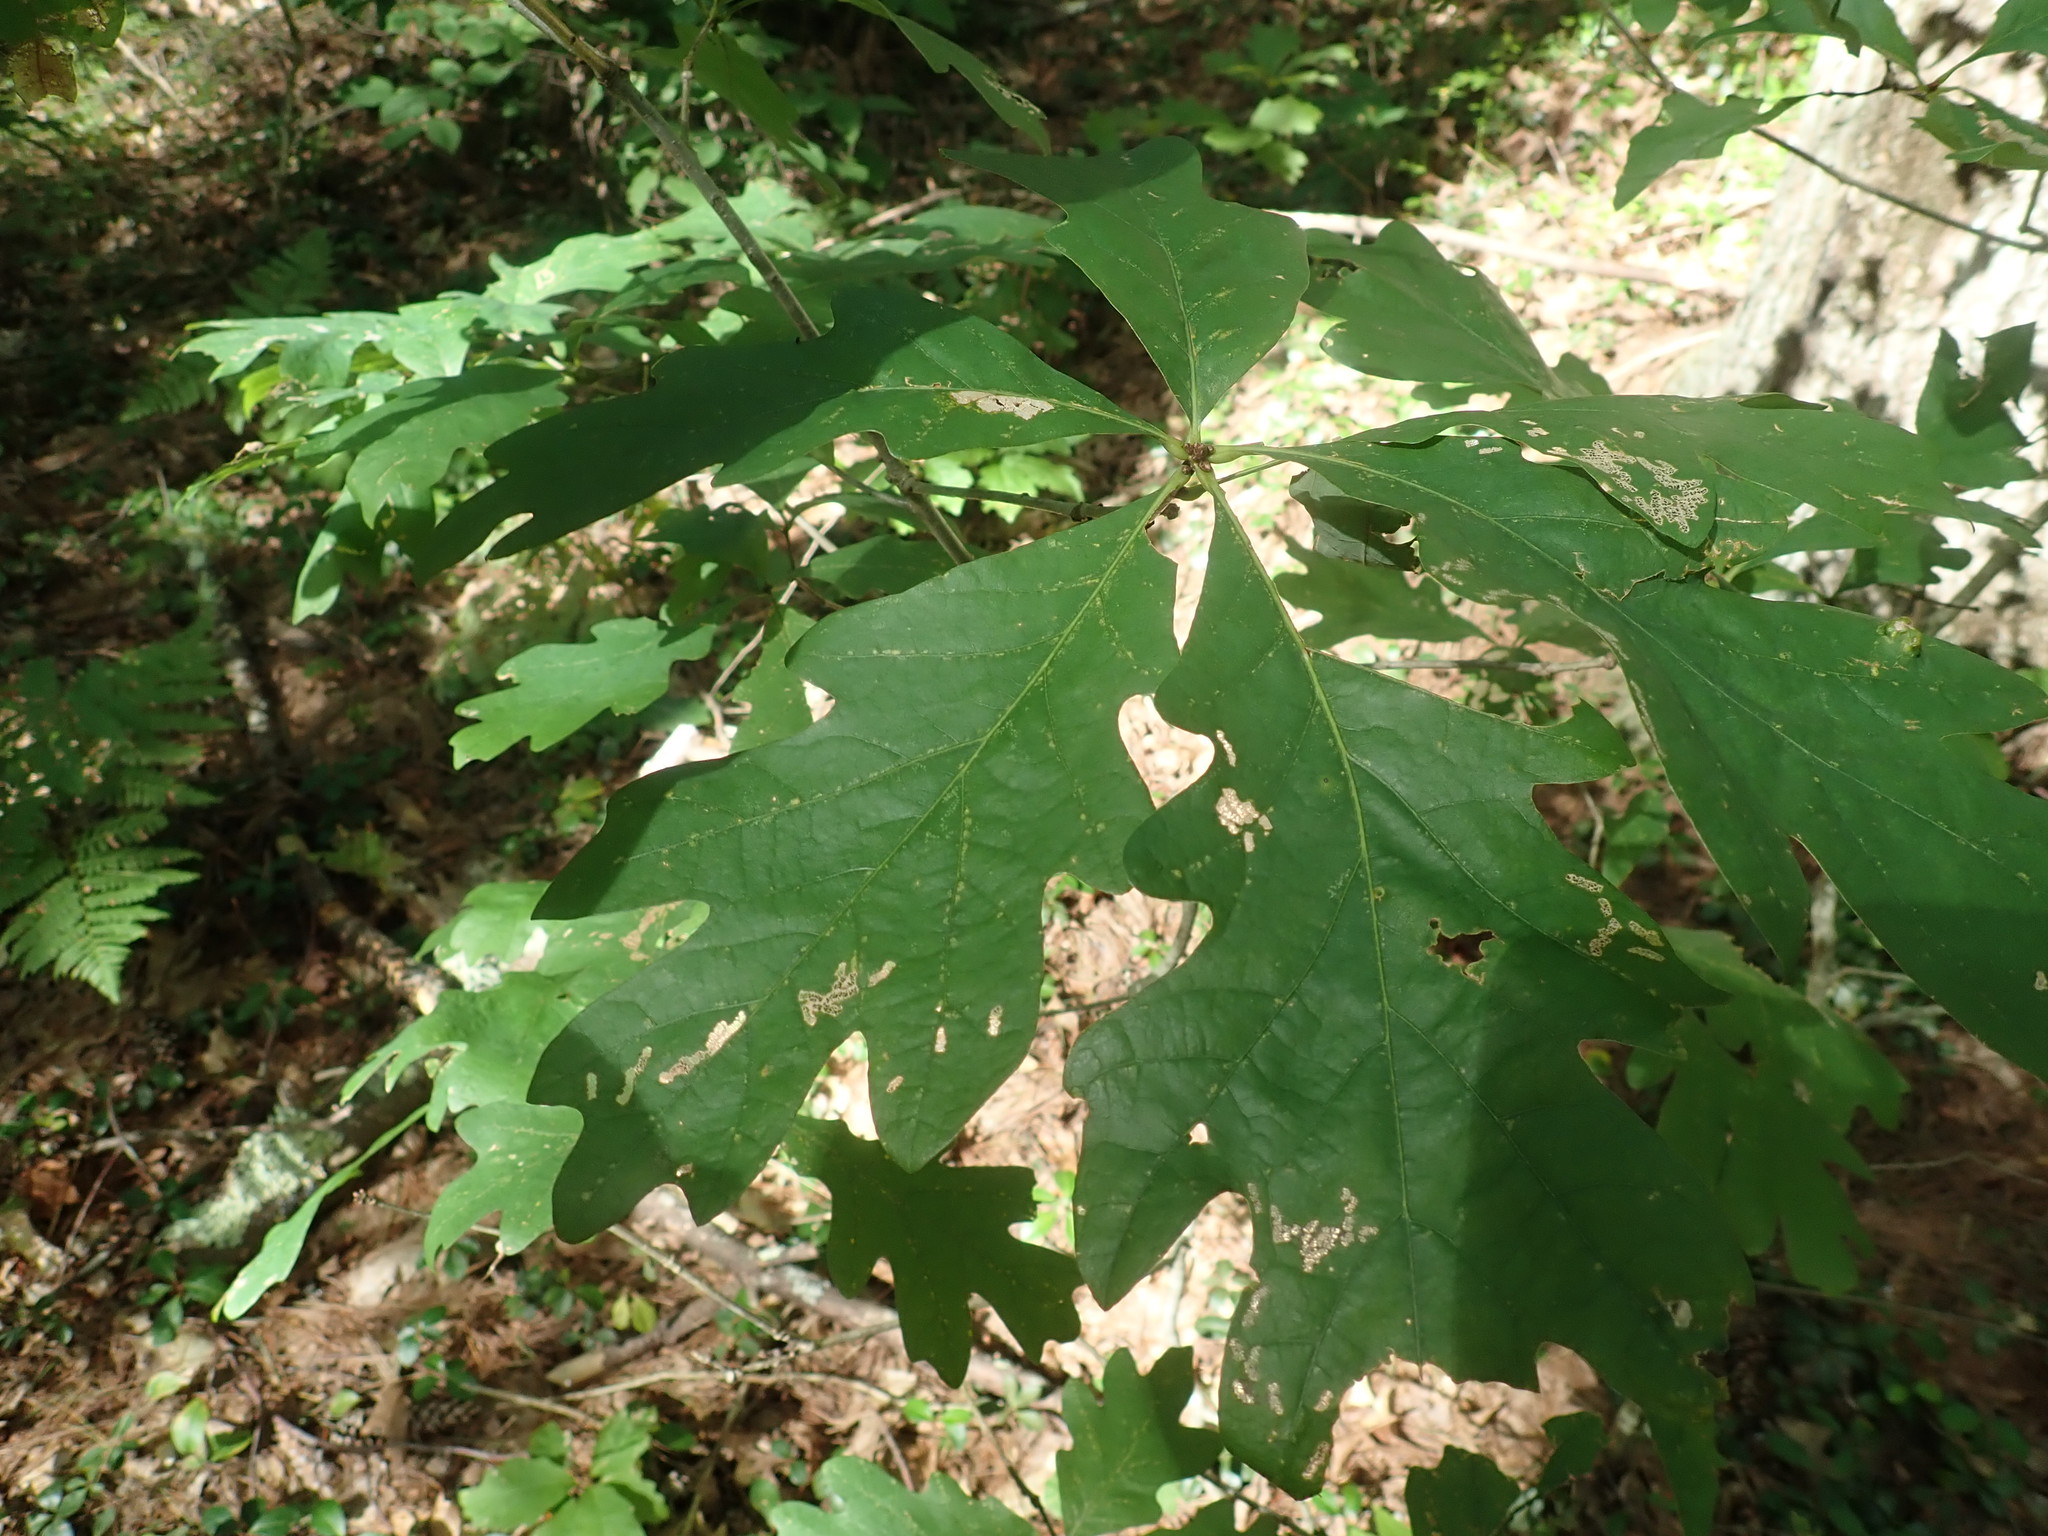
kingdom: Plantae
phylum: Tracheophyta
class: Magnoliopsida
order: Fagales
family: Fagaceae
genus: Quercus
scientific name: Quercus alba
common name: White oak
